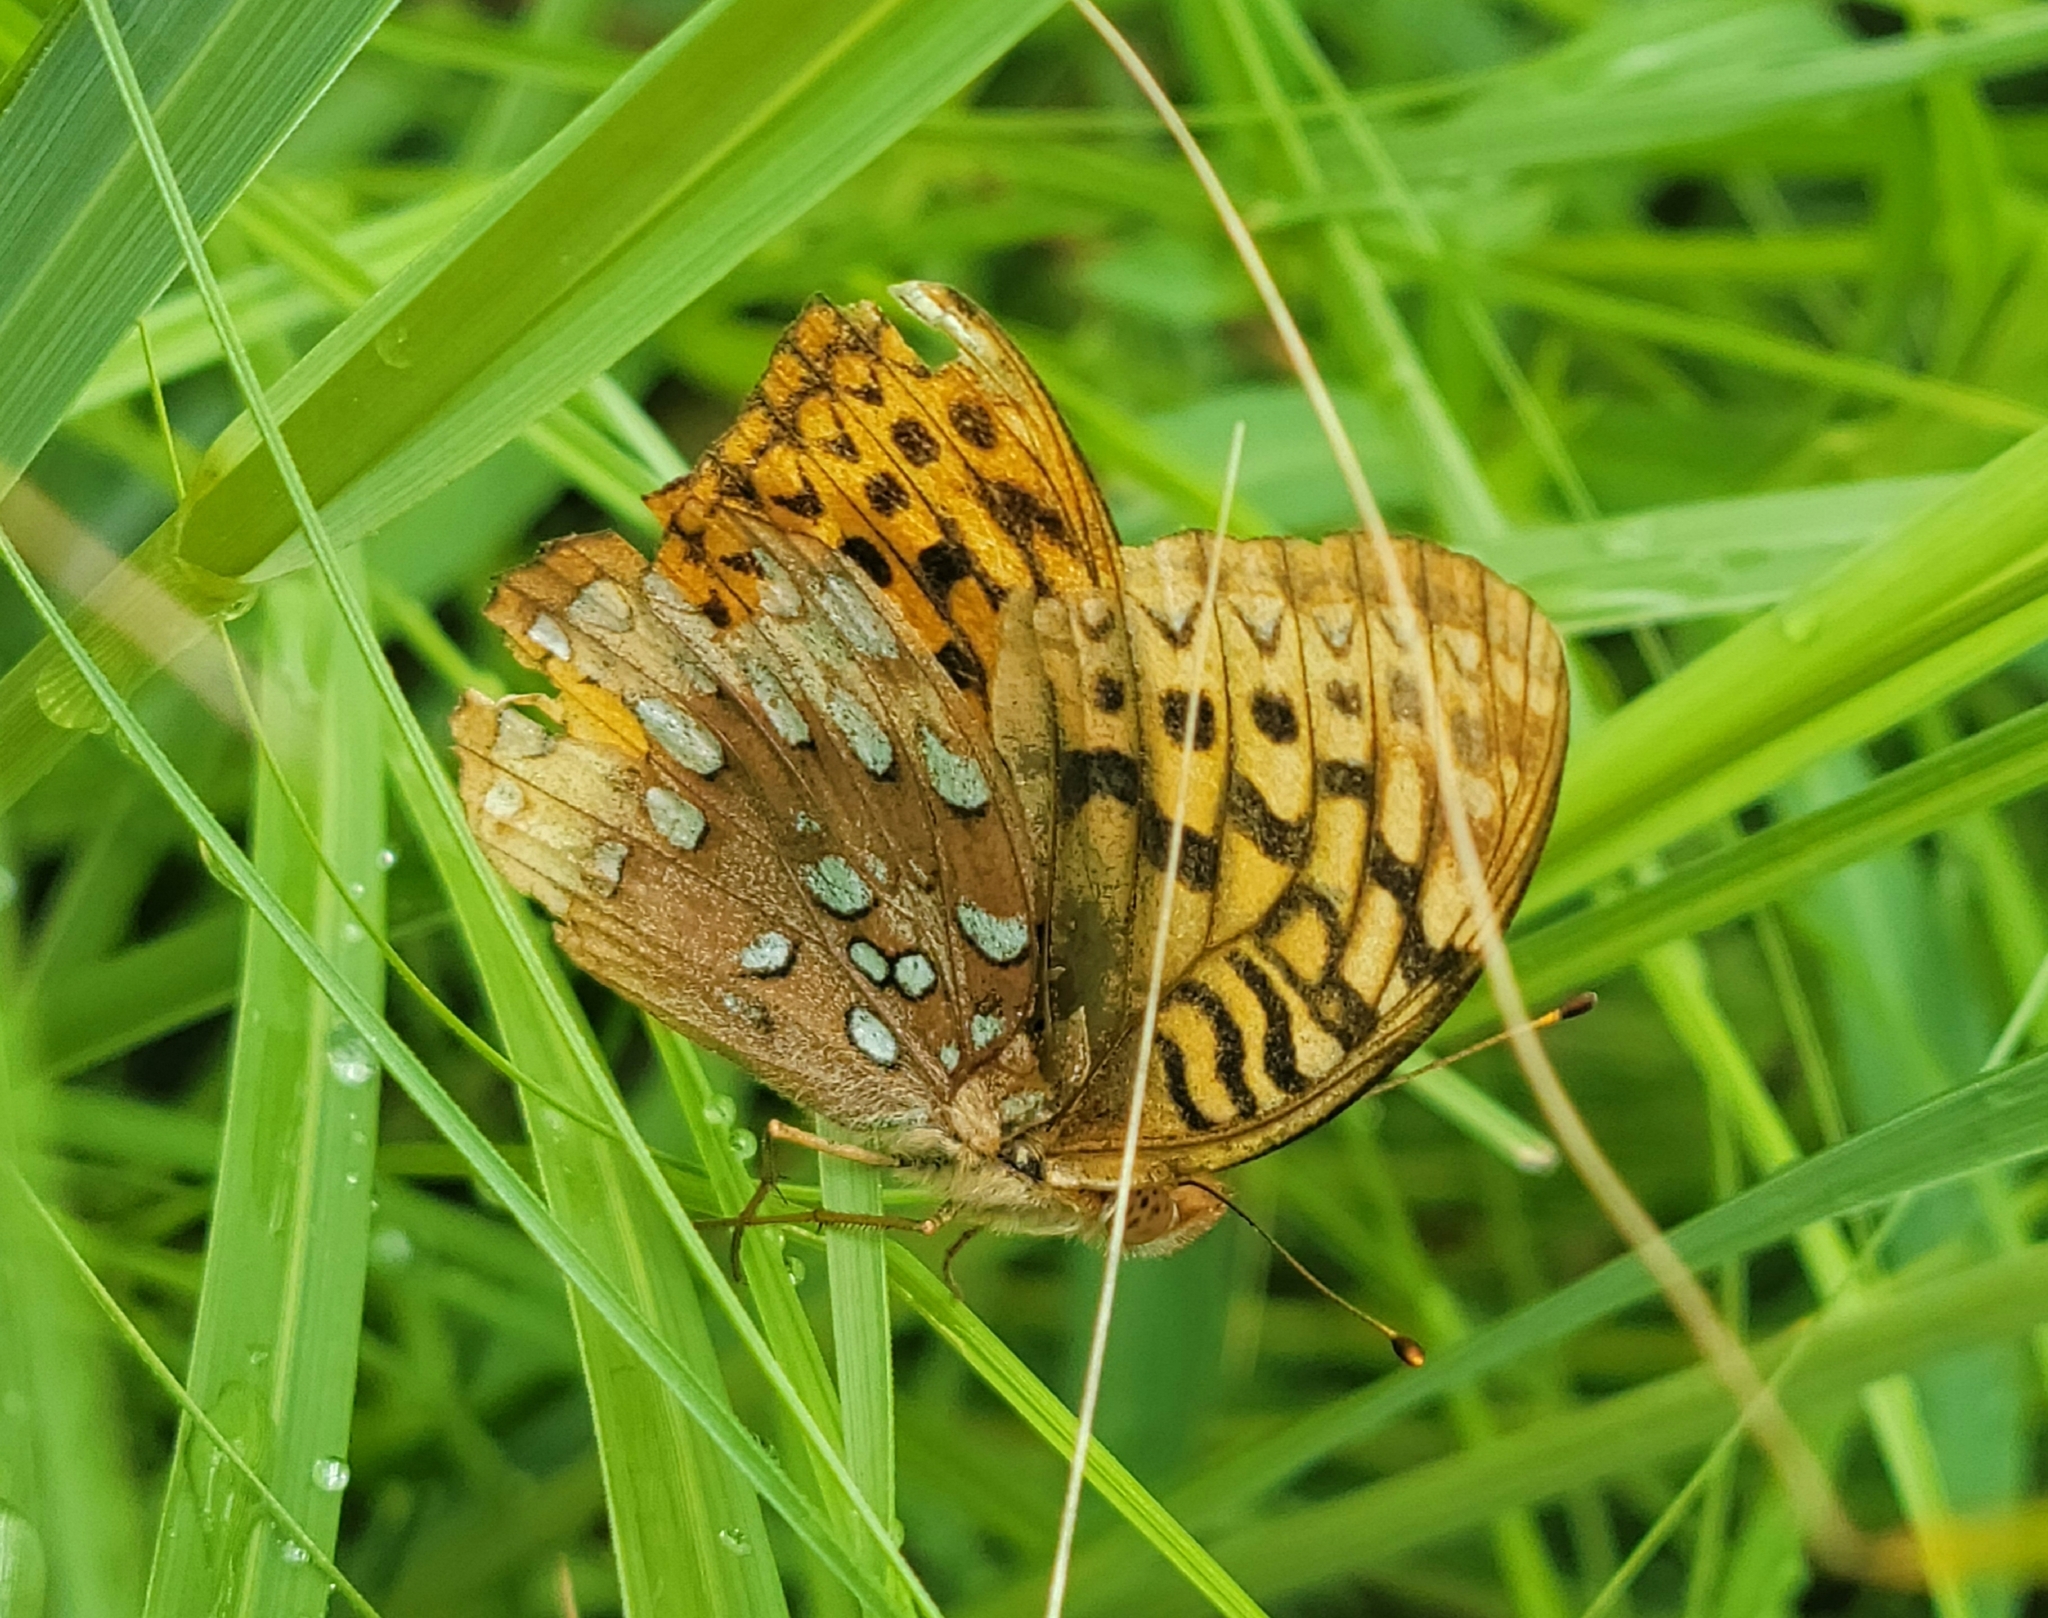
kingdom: Animalia
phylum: Arthropoda
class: Insecta
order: Lepidoptera
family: Nymphalidae
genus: Speyeria
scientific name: Speyeria cybele
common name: Great spangled fritillary
